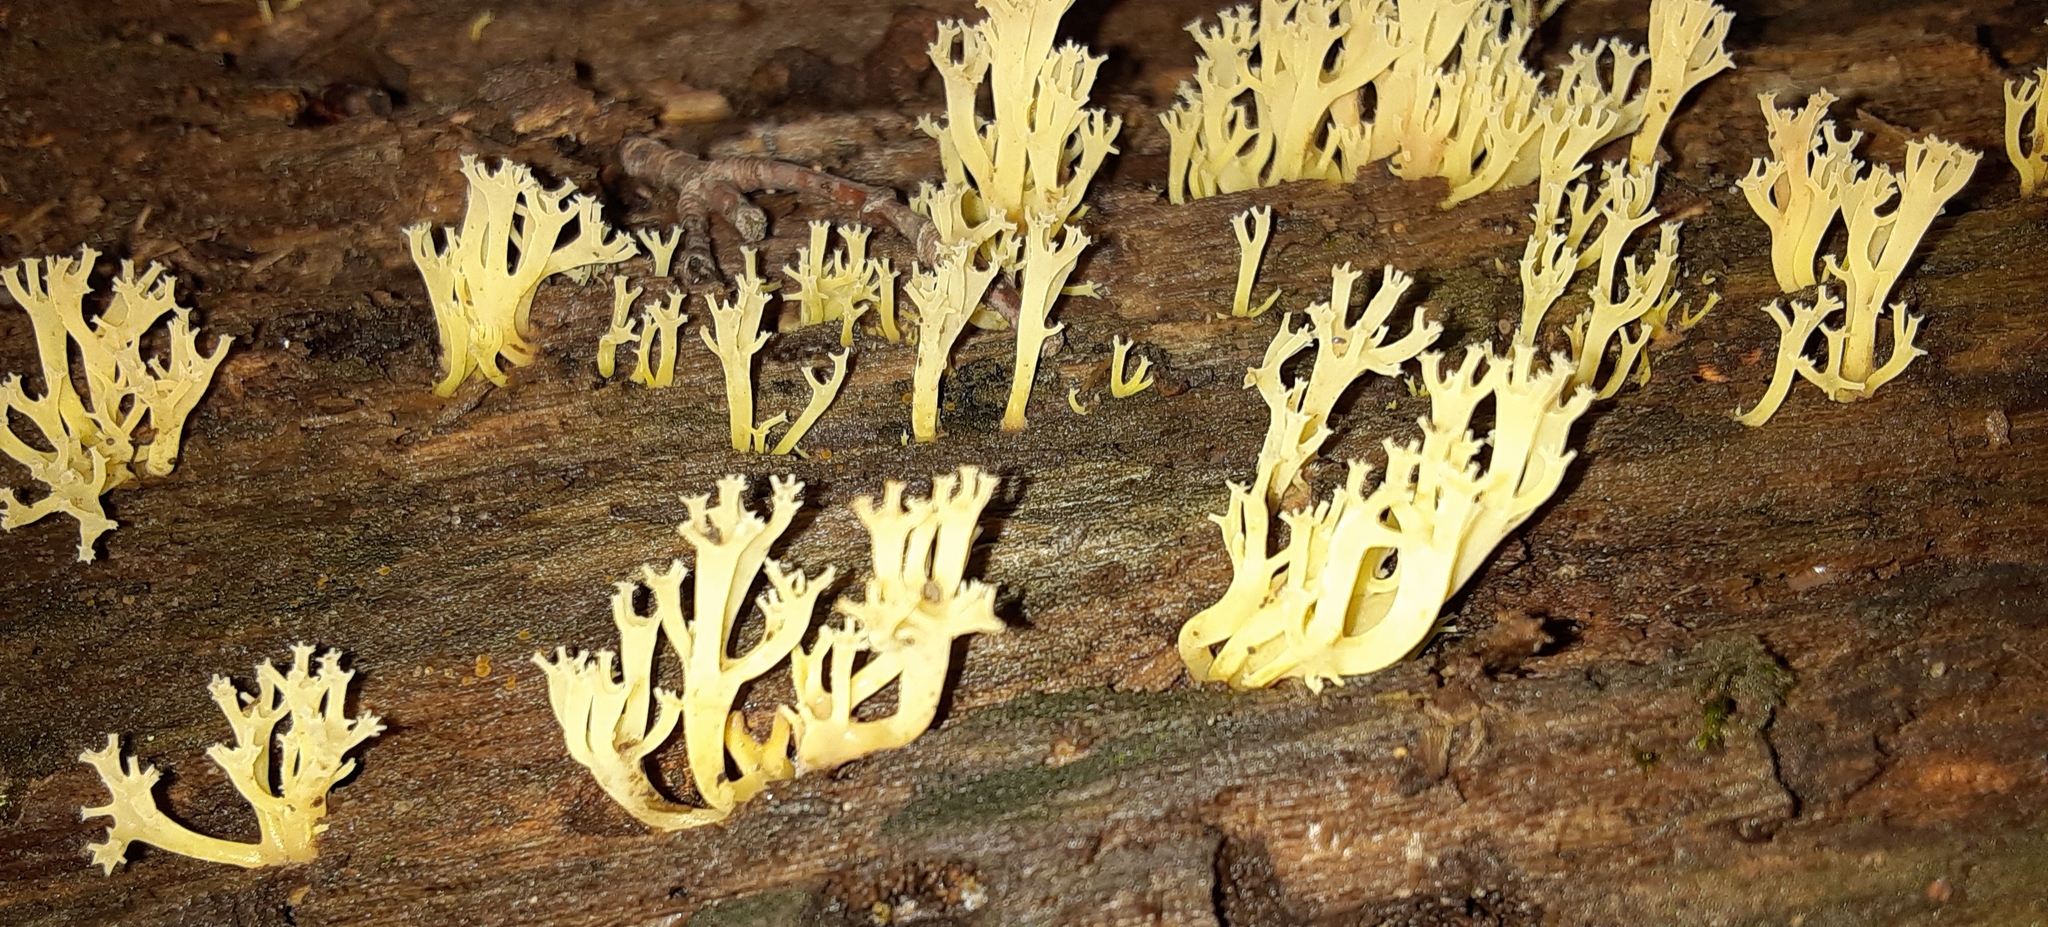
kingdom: Fungi
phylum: Basidiomycota
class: Agaricomycetes
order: Russulales
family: Auriscalpiaceae
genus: Artomyces
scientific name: Artomyces pyxidatus
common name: Crown-tipped coral fungus
